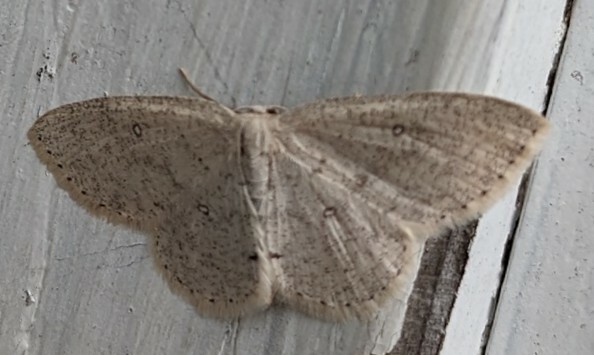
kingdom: Animalia
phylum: Arthropoda
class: Insecta
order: Lepidoptera
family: Geometridae
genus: Cyclophora
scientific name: Cyclophora pendulinaria
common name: Sweet fern geometer
